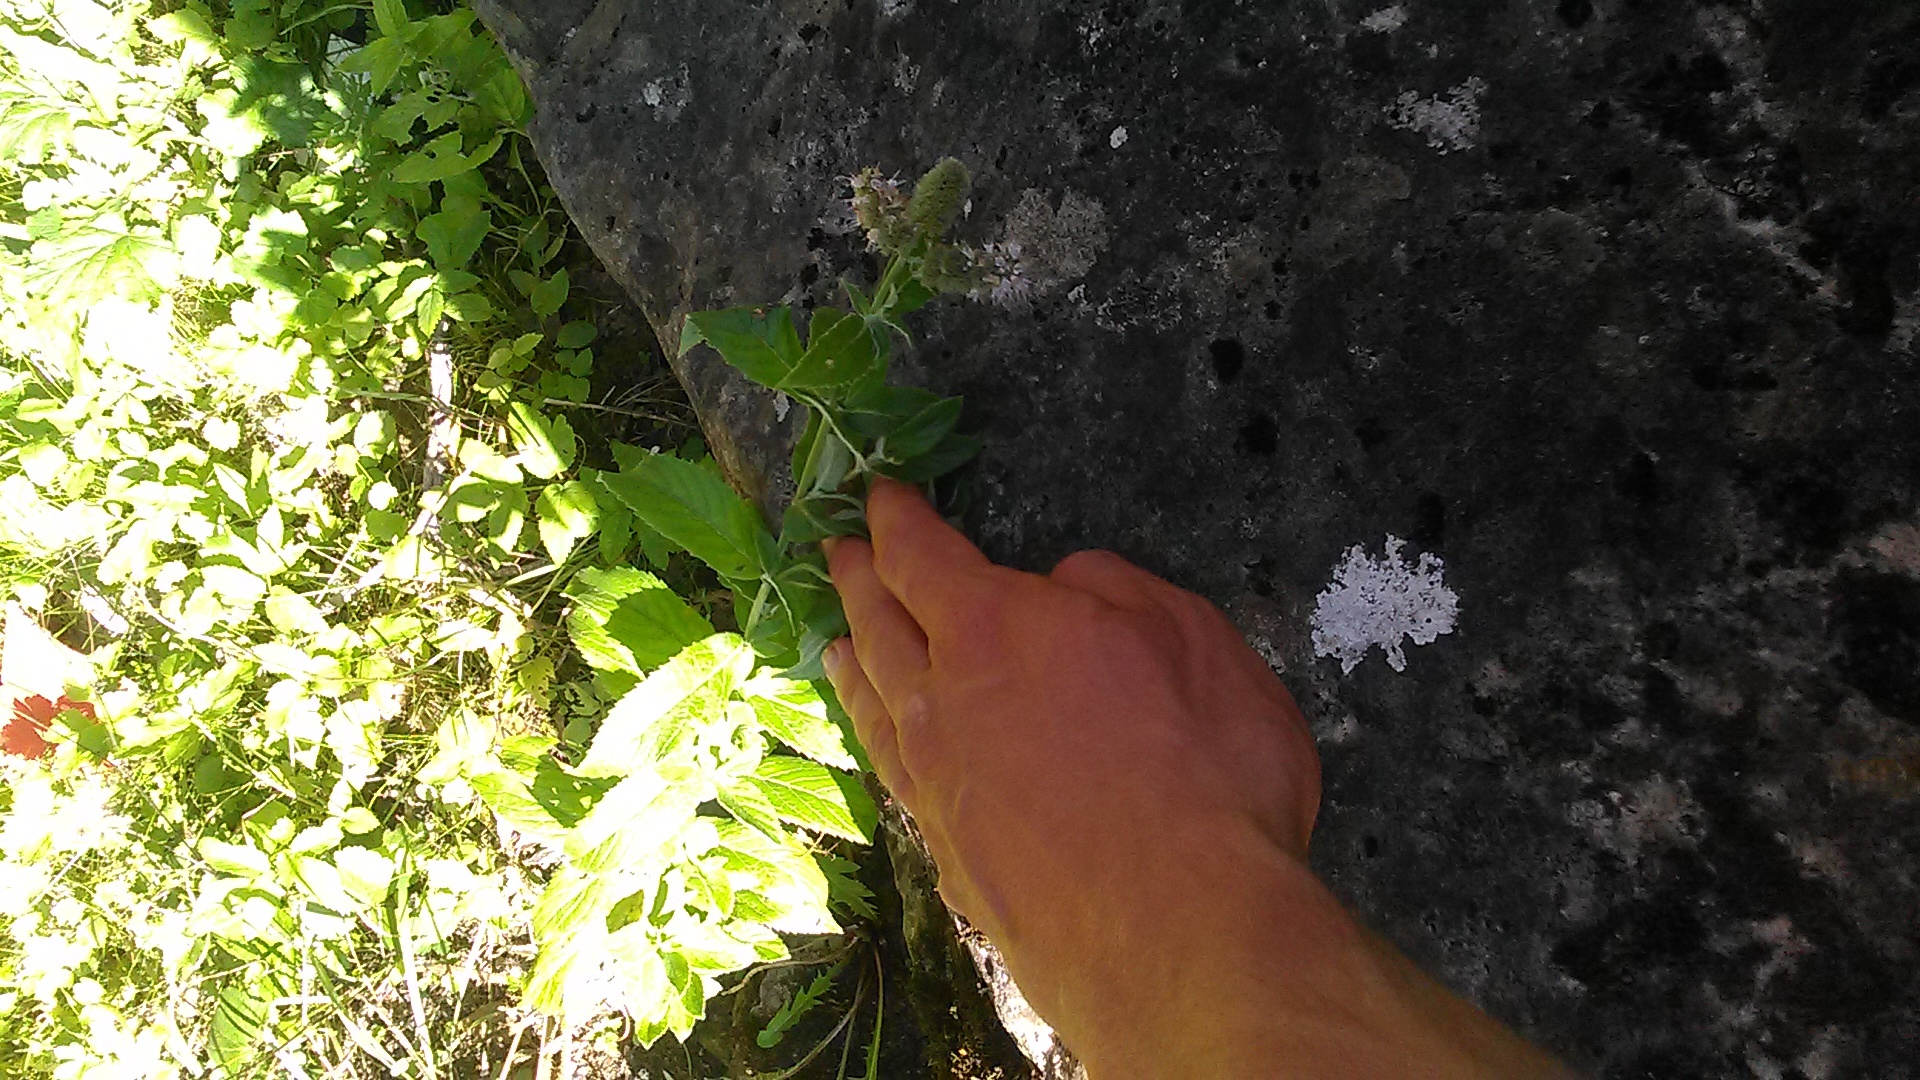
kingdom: Plantae
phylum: Tracheophyta
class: Magnoliopsida
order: Lamiales
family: Lamiaceae
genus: Mentha
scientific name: Mentha longifolia
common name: Horse mint
